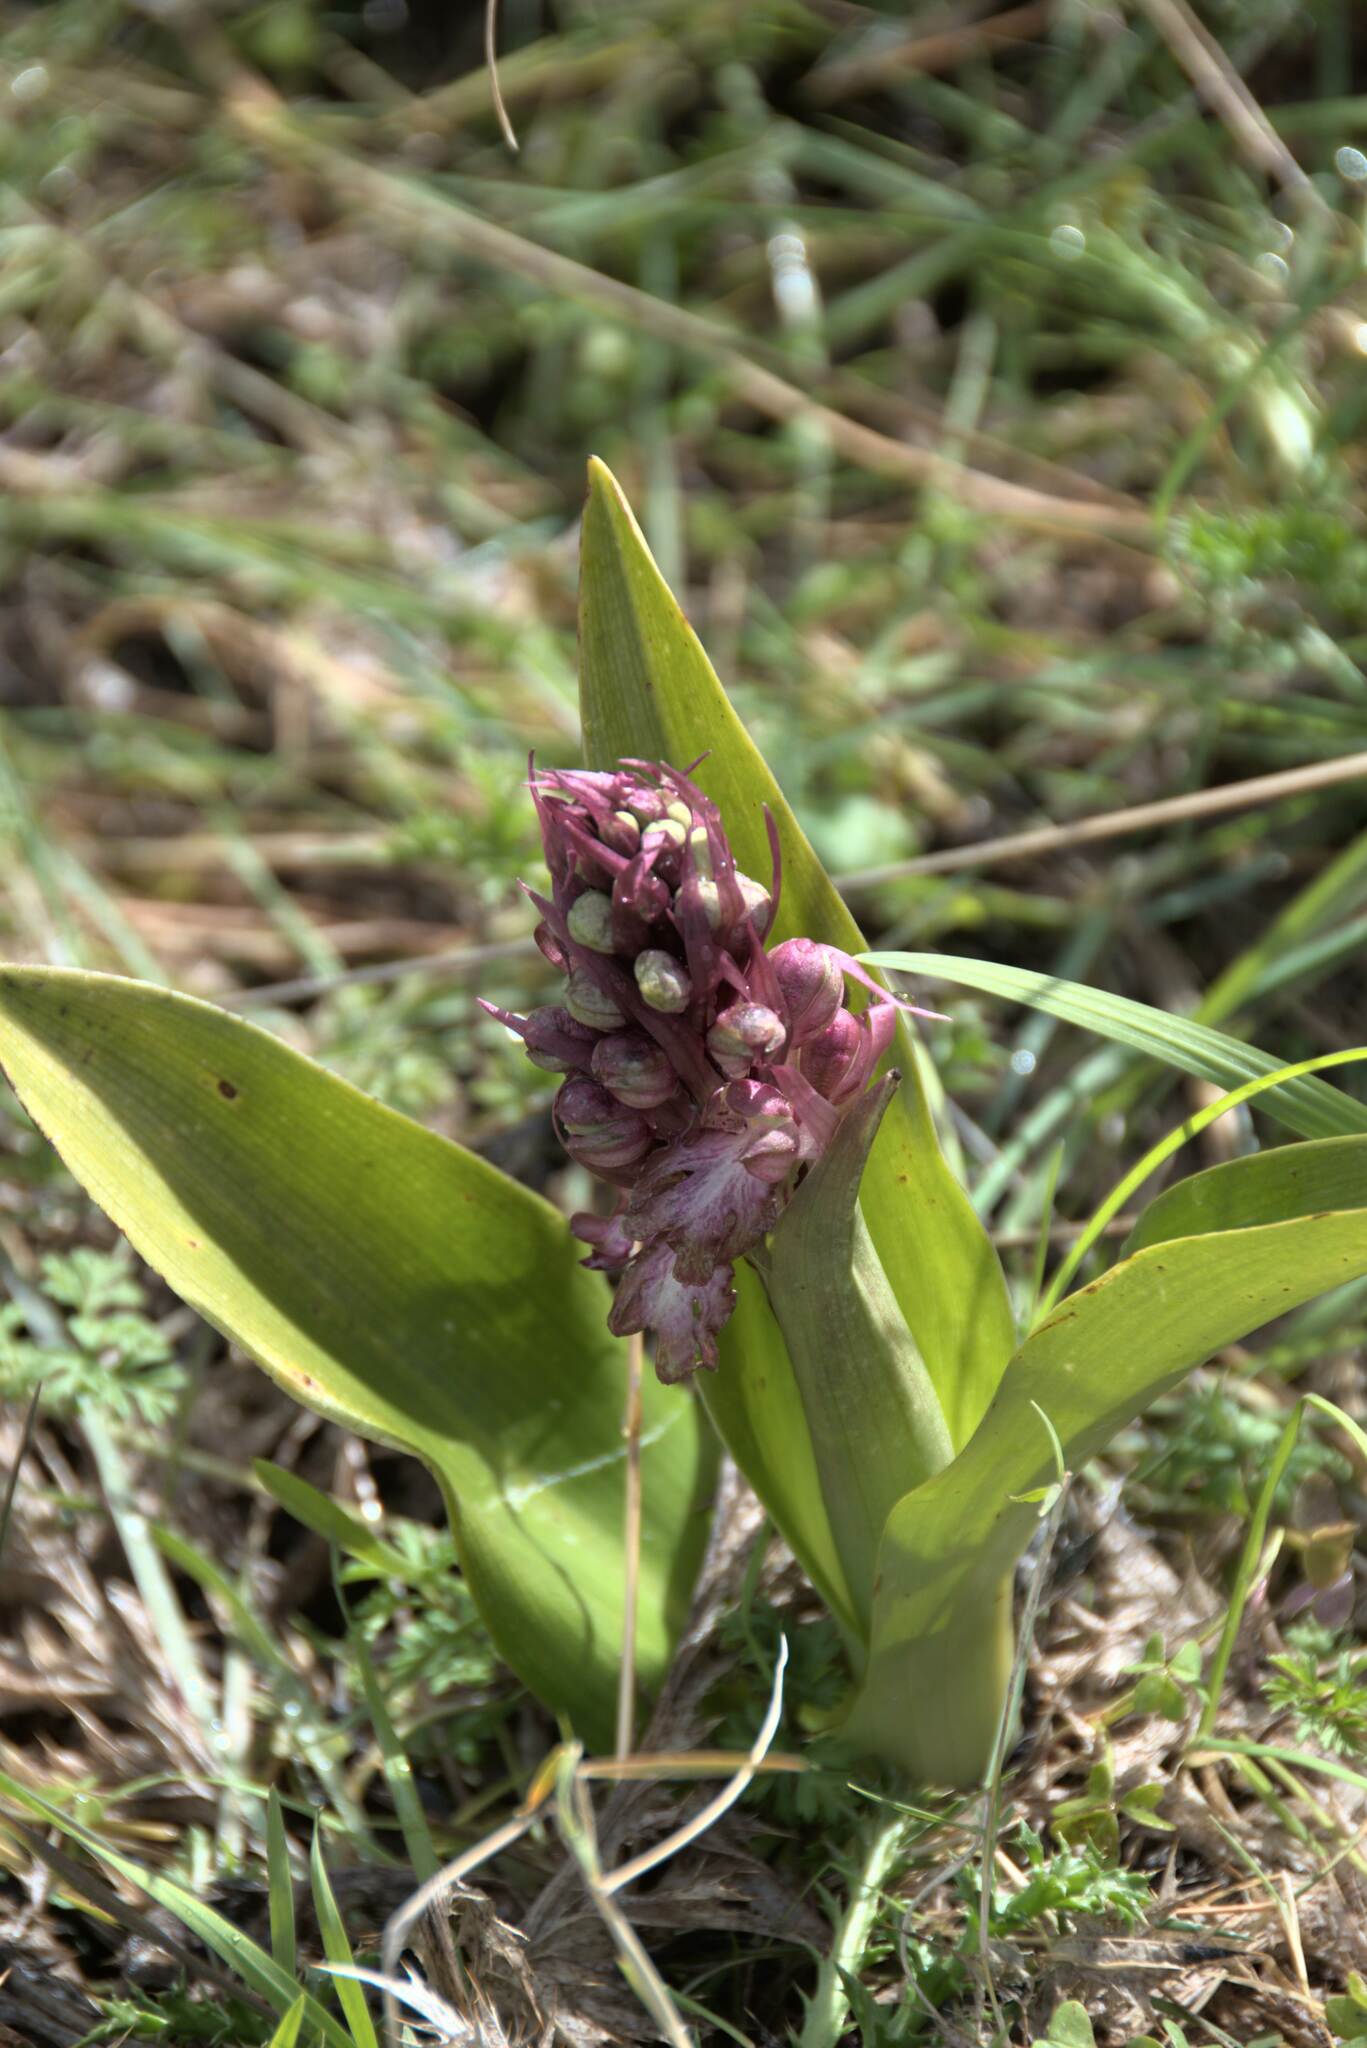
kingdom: Plantae
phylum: Tracheophyta
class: Liliopsida
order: Asparagales
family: Orchidaceae
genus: Himantoglossum
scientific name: Himantoglossum robertianum
